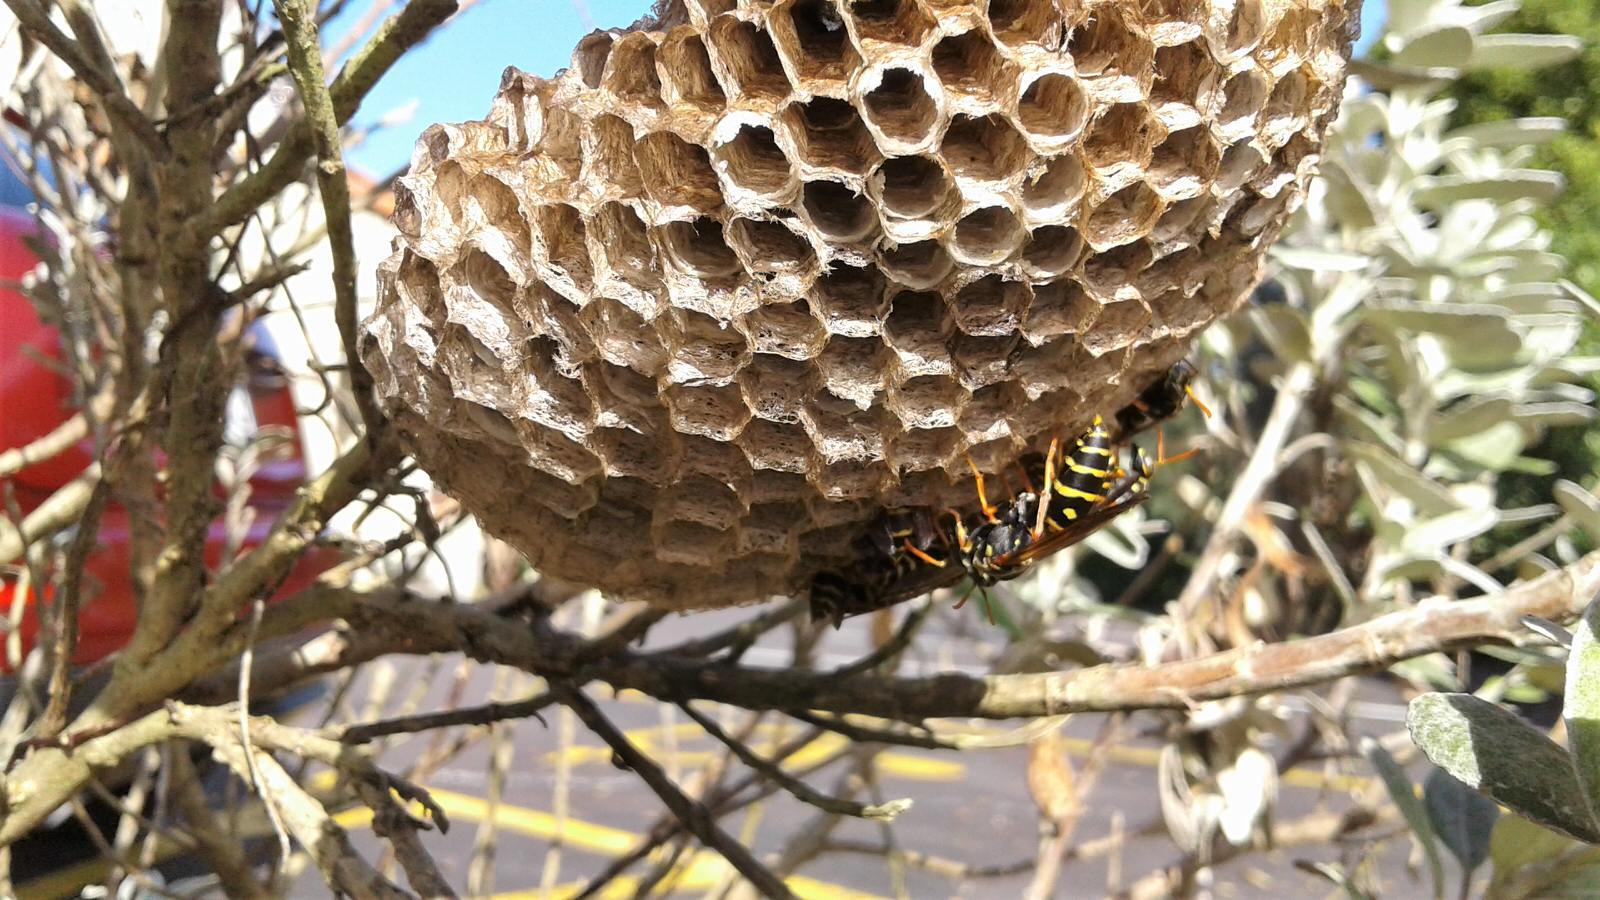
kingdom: Animalia
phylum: Arthropoda
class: Insecta
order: Hymenoptera
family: Eumenidae
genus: Polistes
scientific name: Polistes chinensis
